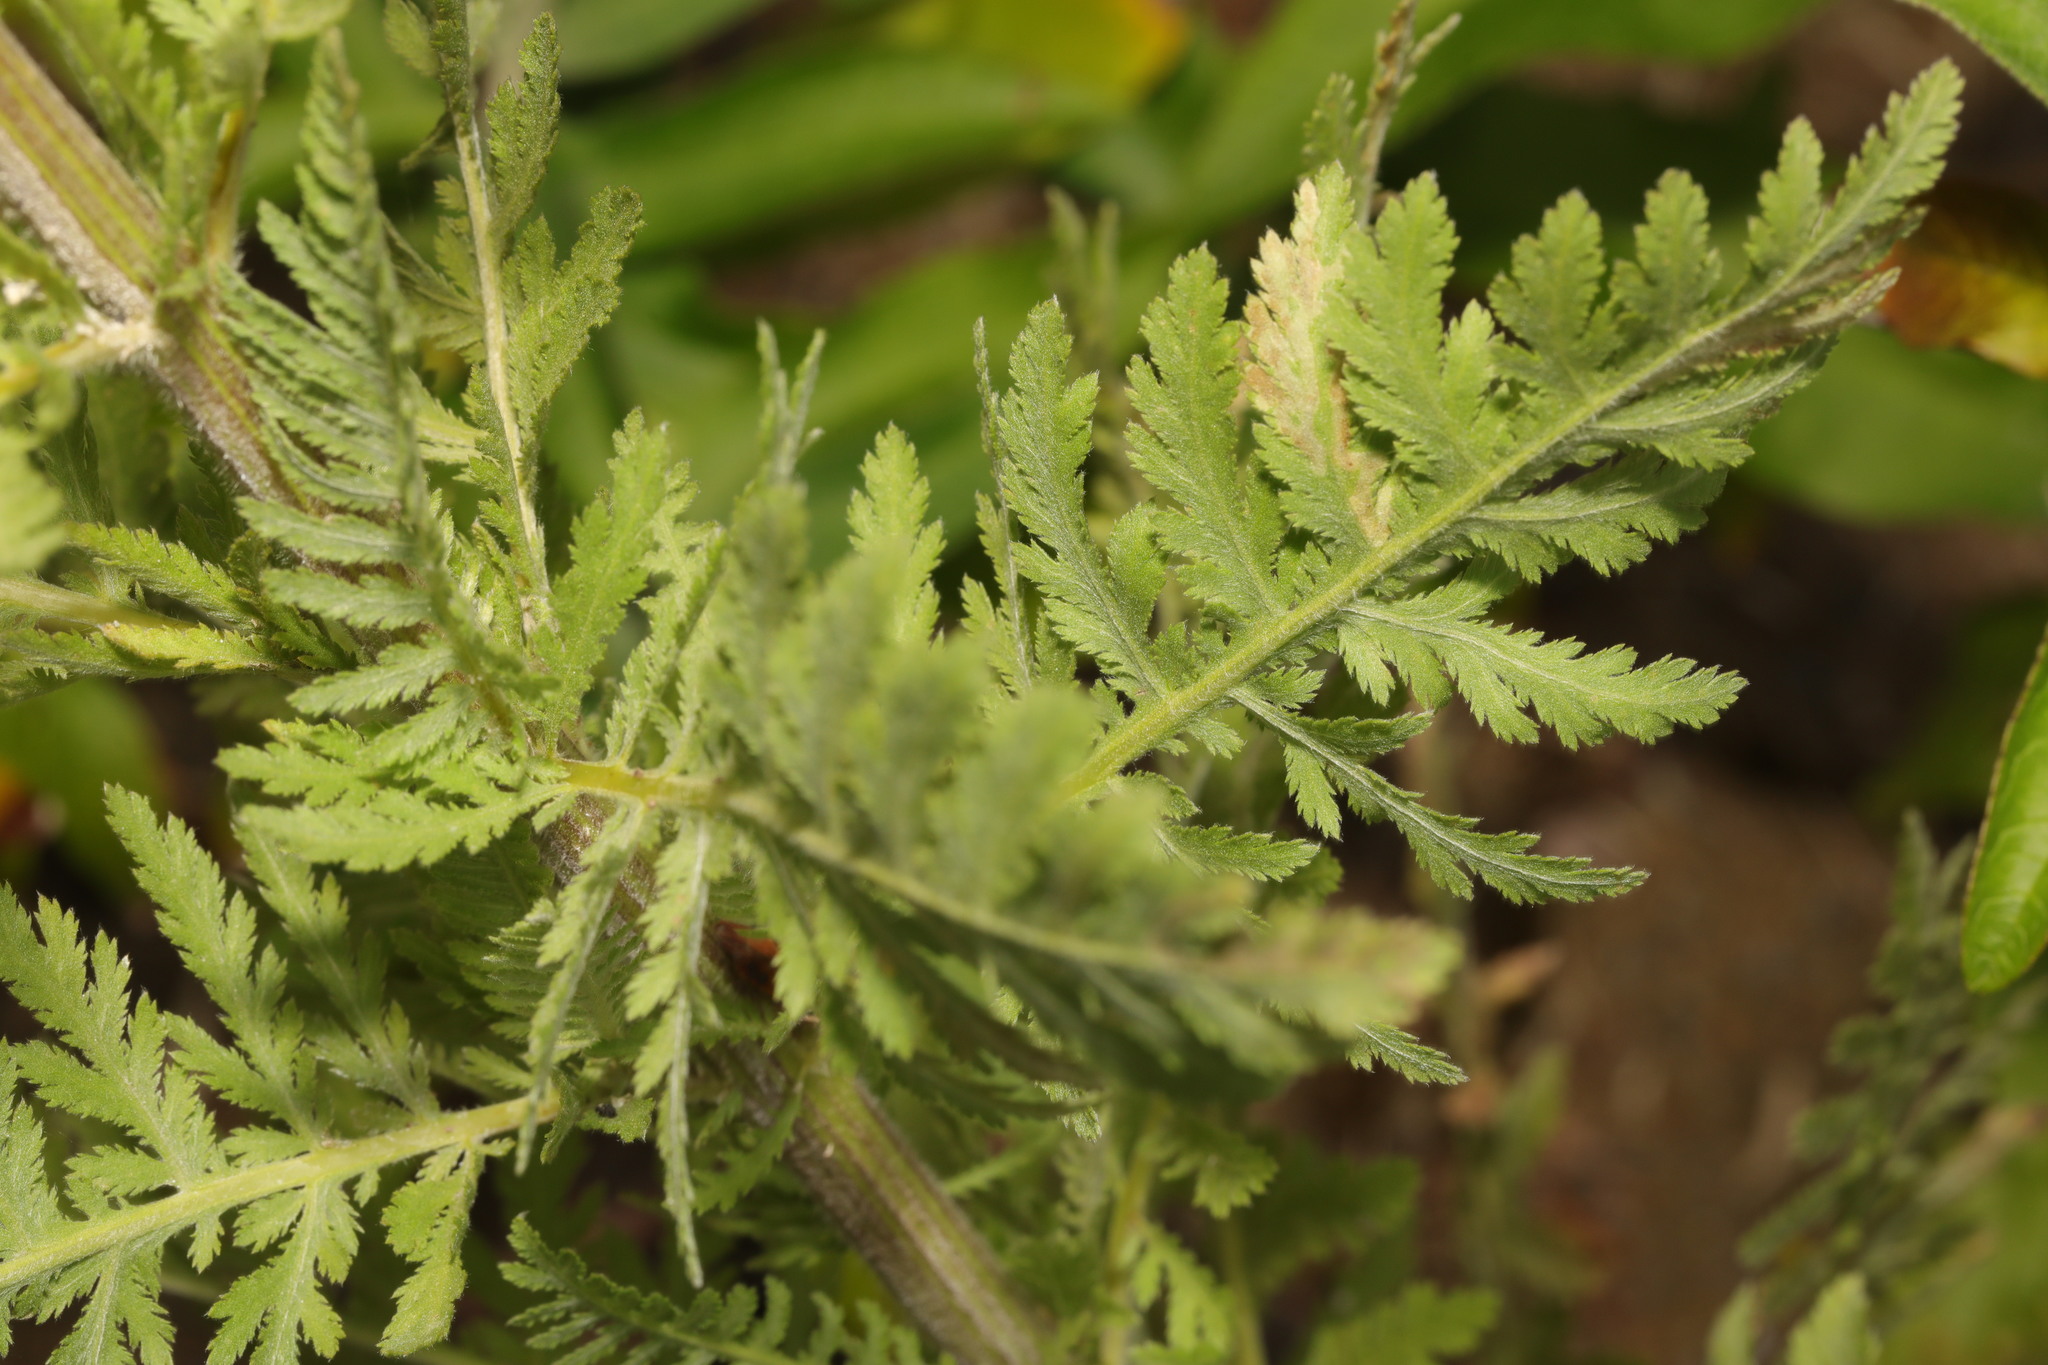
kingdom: Plantae
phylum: Tracheophyta
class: Magnoliopsida
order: Asterales
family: Asteraceae
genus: Achillea
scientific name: Achillea filipendulina
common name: Fernleaf yarrow
